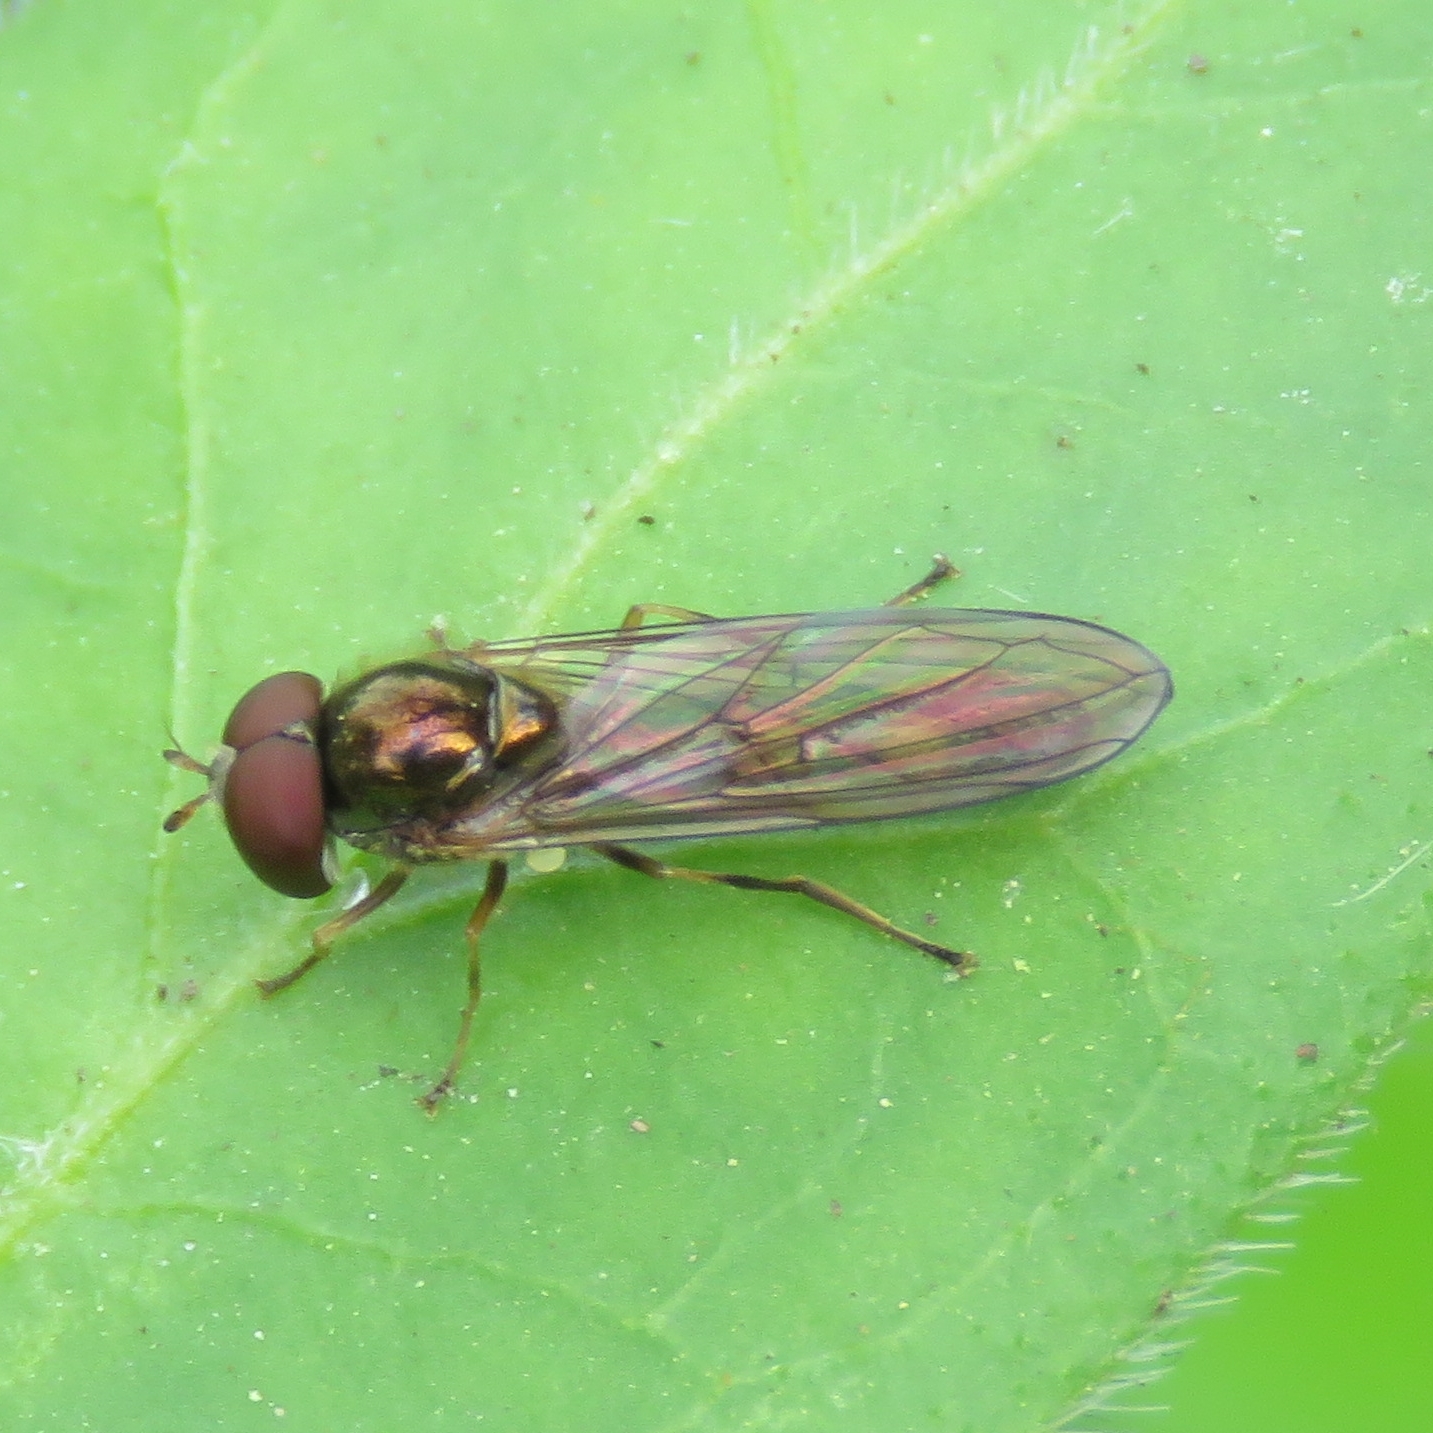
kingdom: Animalia
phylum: Arthropoda
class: Insecta
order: Diptera
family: Syrphidae
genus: Melanostoma
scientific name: Melanostoma scalare
